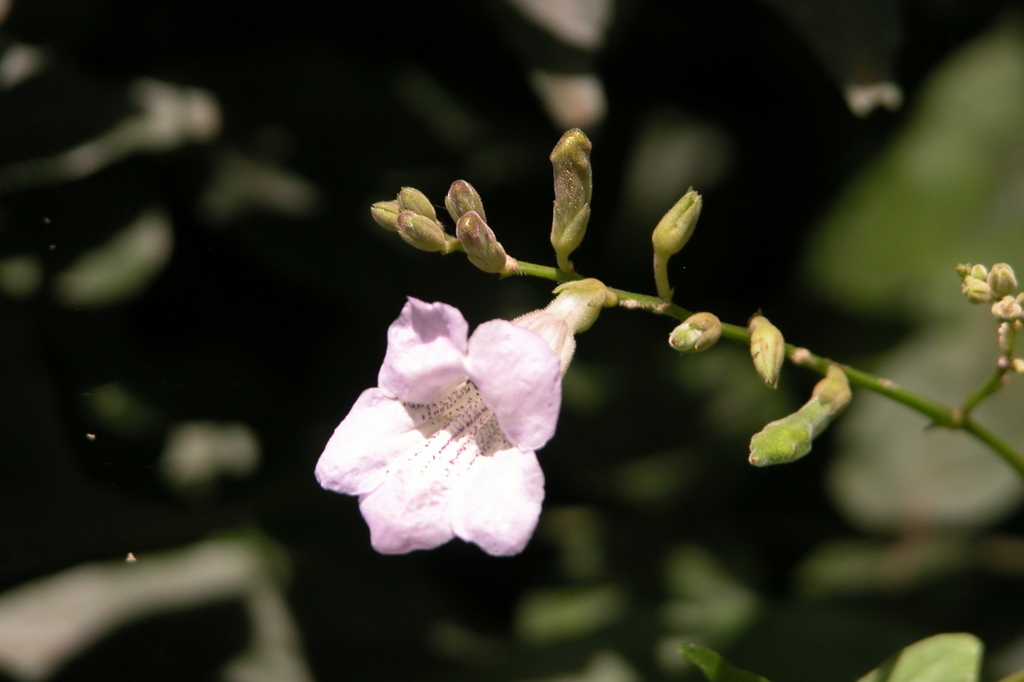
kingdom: Plantae
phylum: Tracheophyta
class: Magnoliopsida
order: Lamiales
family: Acanthaceae
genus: Asystasia
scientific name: Asystasia gangetica
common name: Chinese violet
